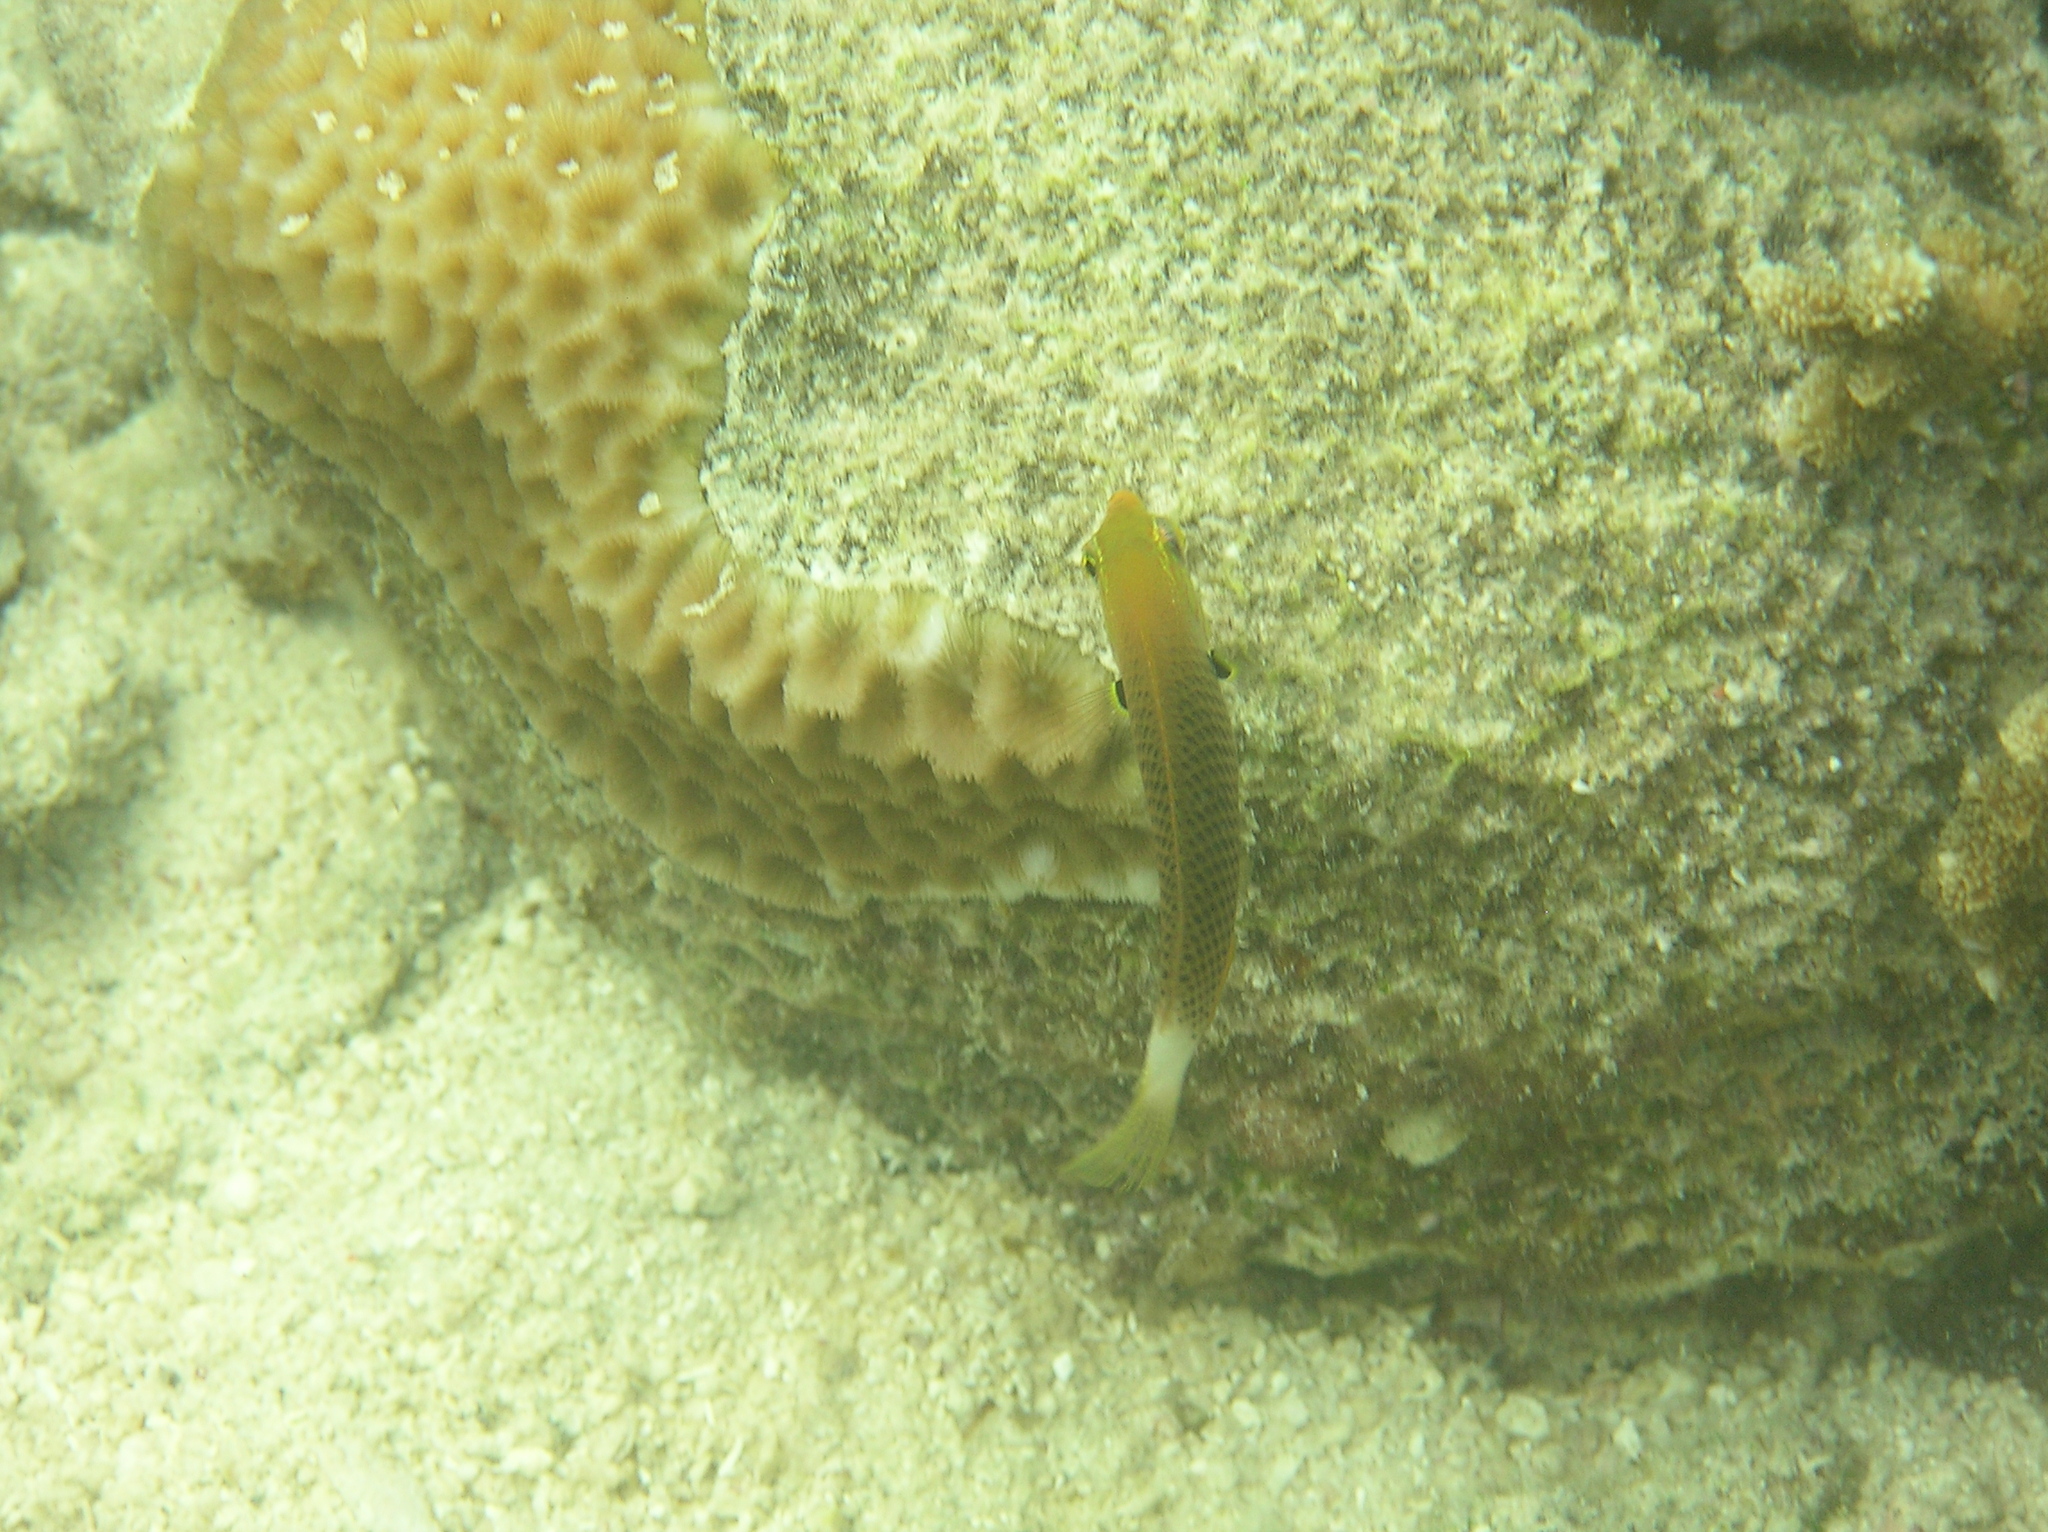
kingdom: Animalia
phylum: Chordata
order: Perciformes
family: Labridae
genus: Halichoeres
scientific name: Halichoeres podostigma
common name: Axil spot wrasse
